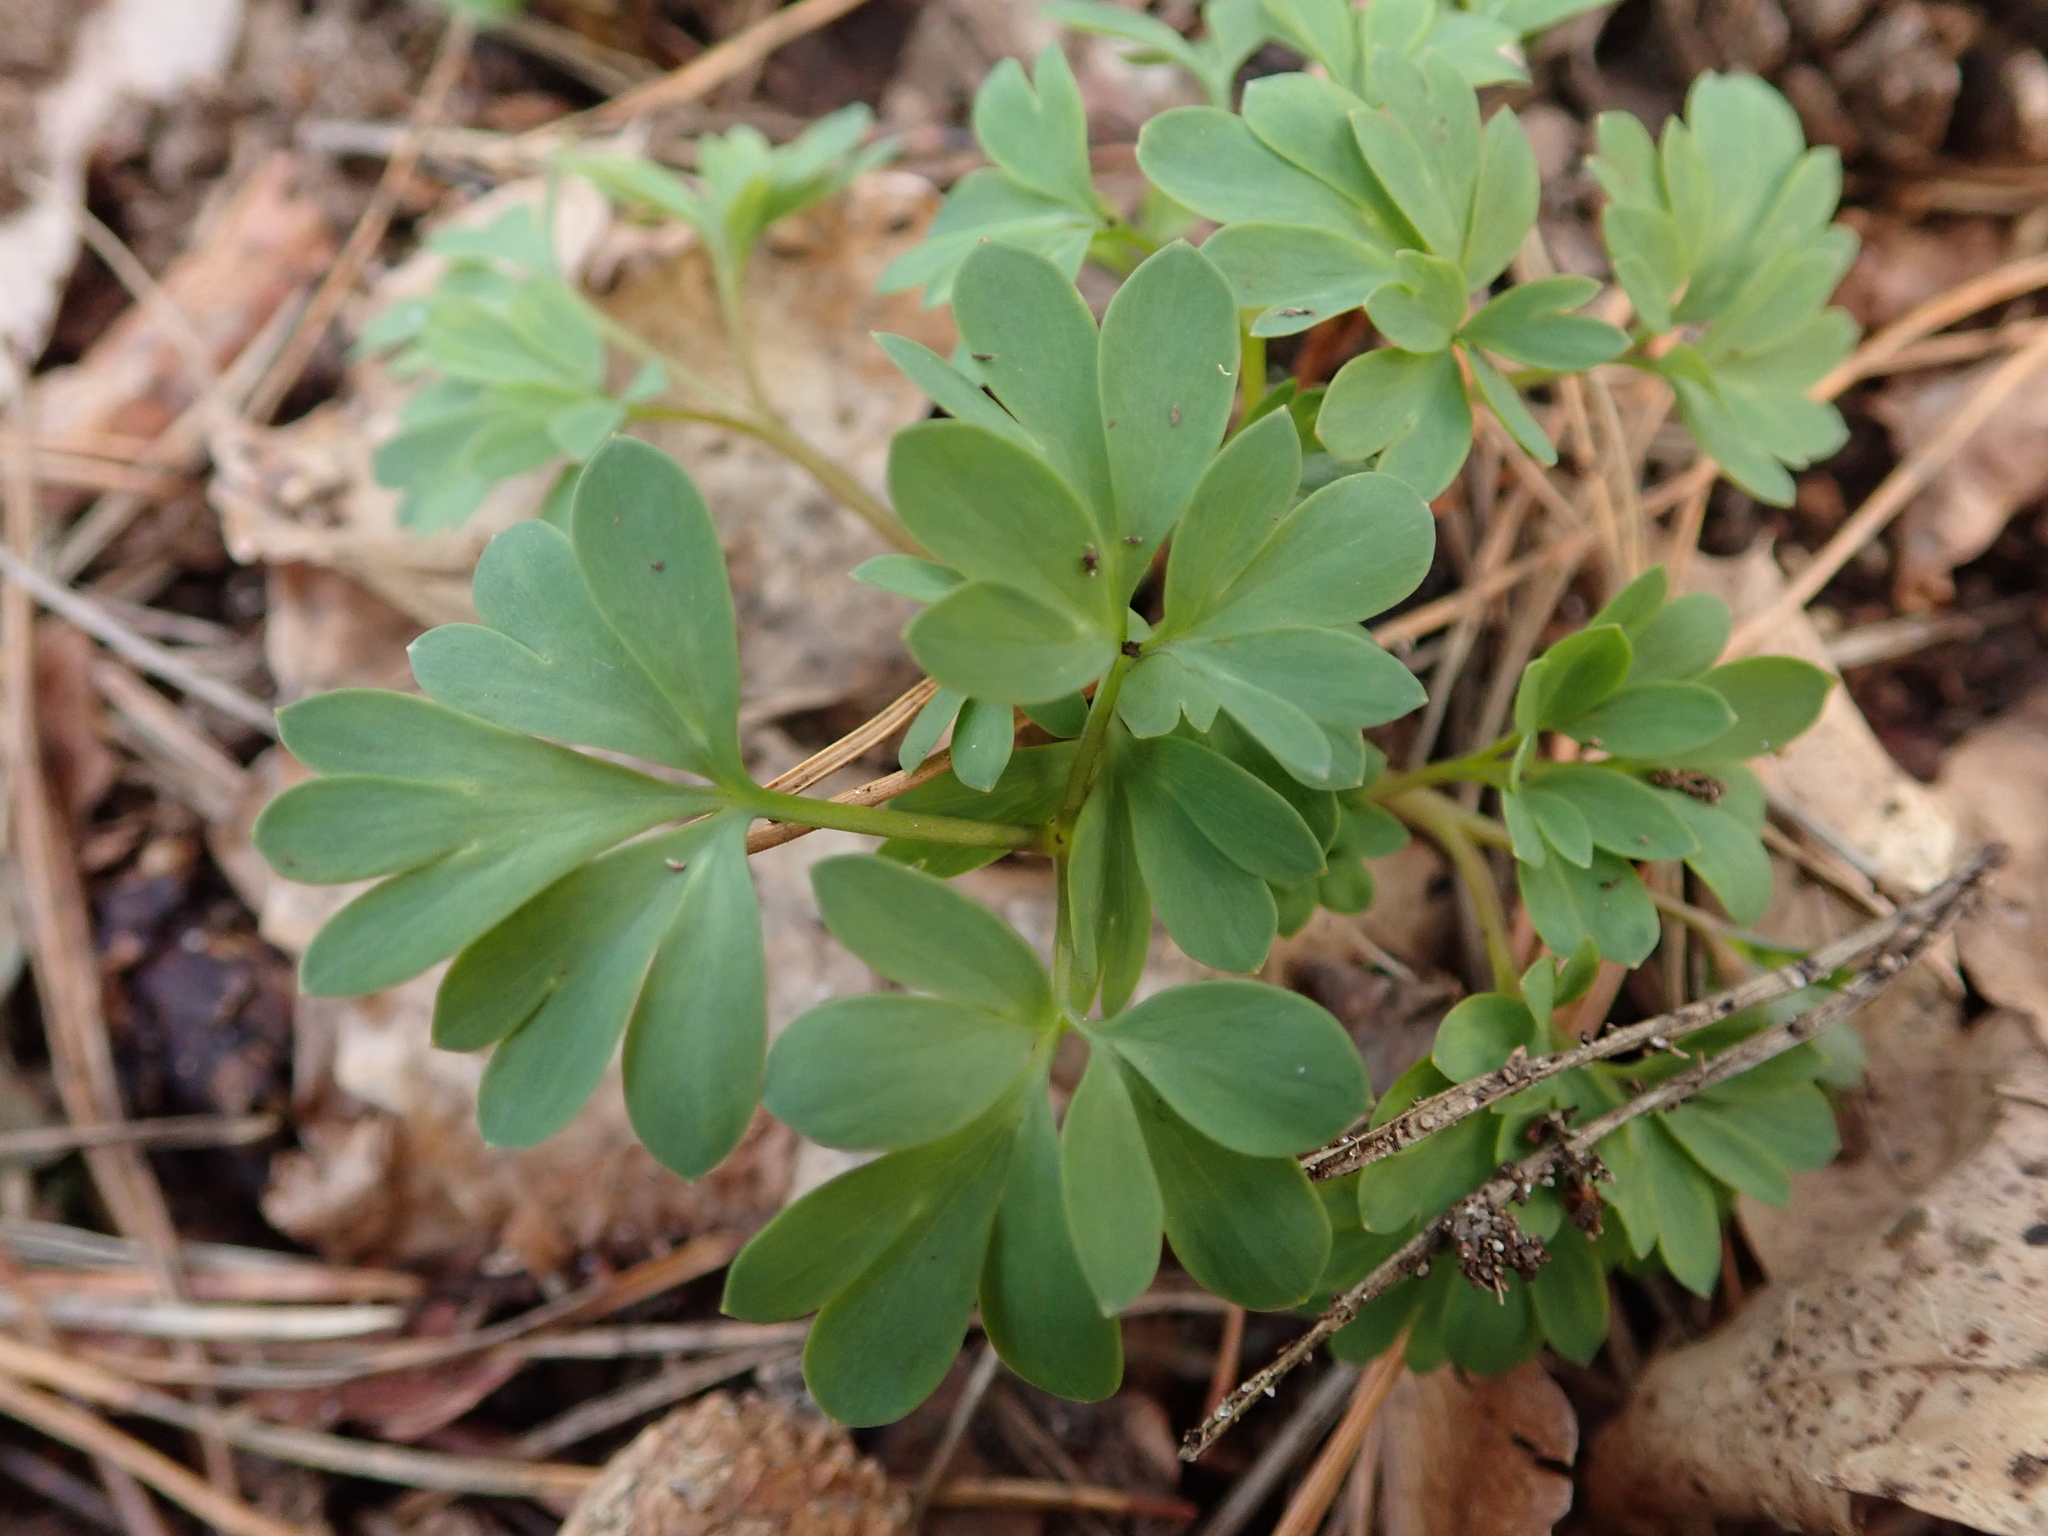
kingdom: Plantae
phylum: Tracheophyta
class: Magnoliopsida
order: Ranunculales
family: Papaveraceae
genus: Corydalis
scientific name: Corydalis solida
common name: Bird-in-a-bush
